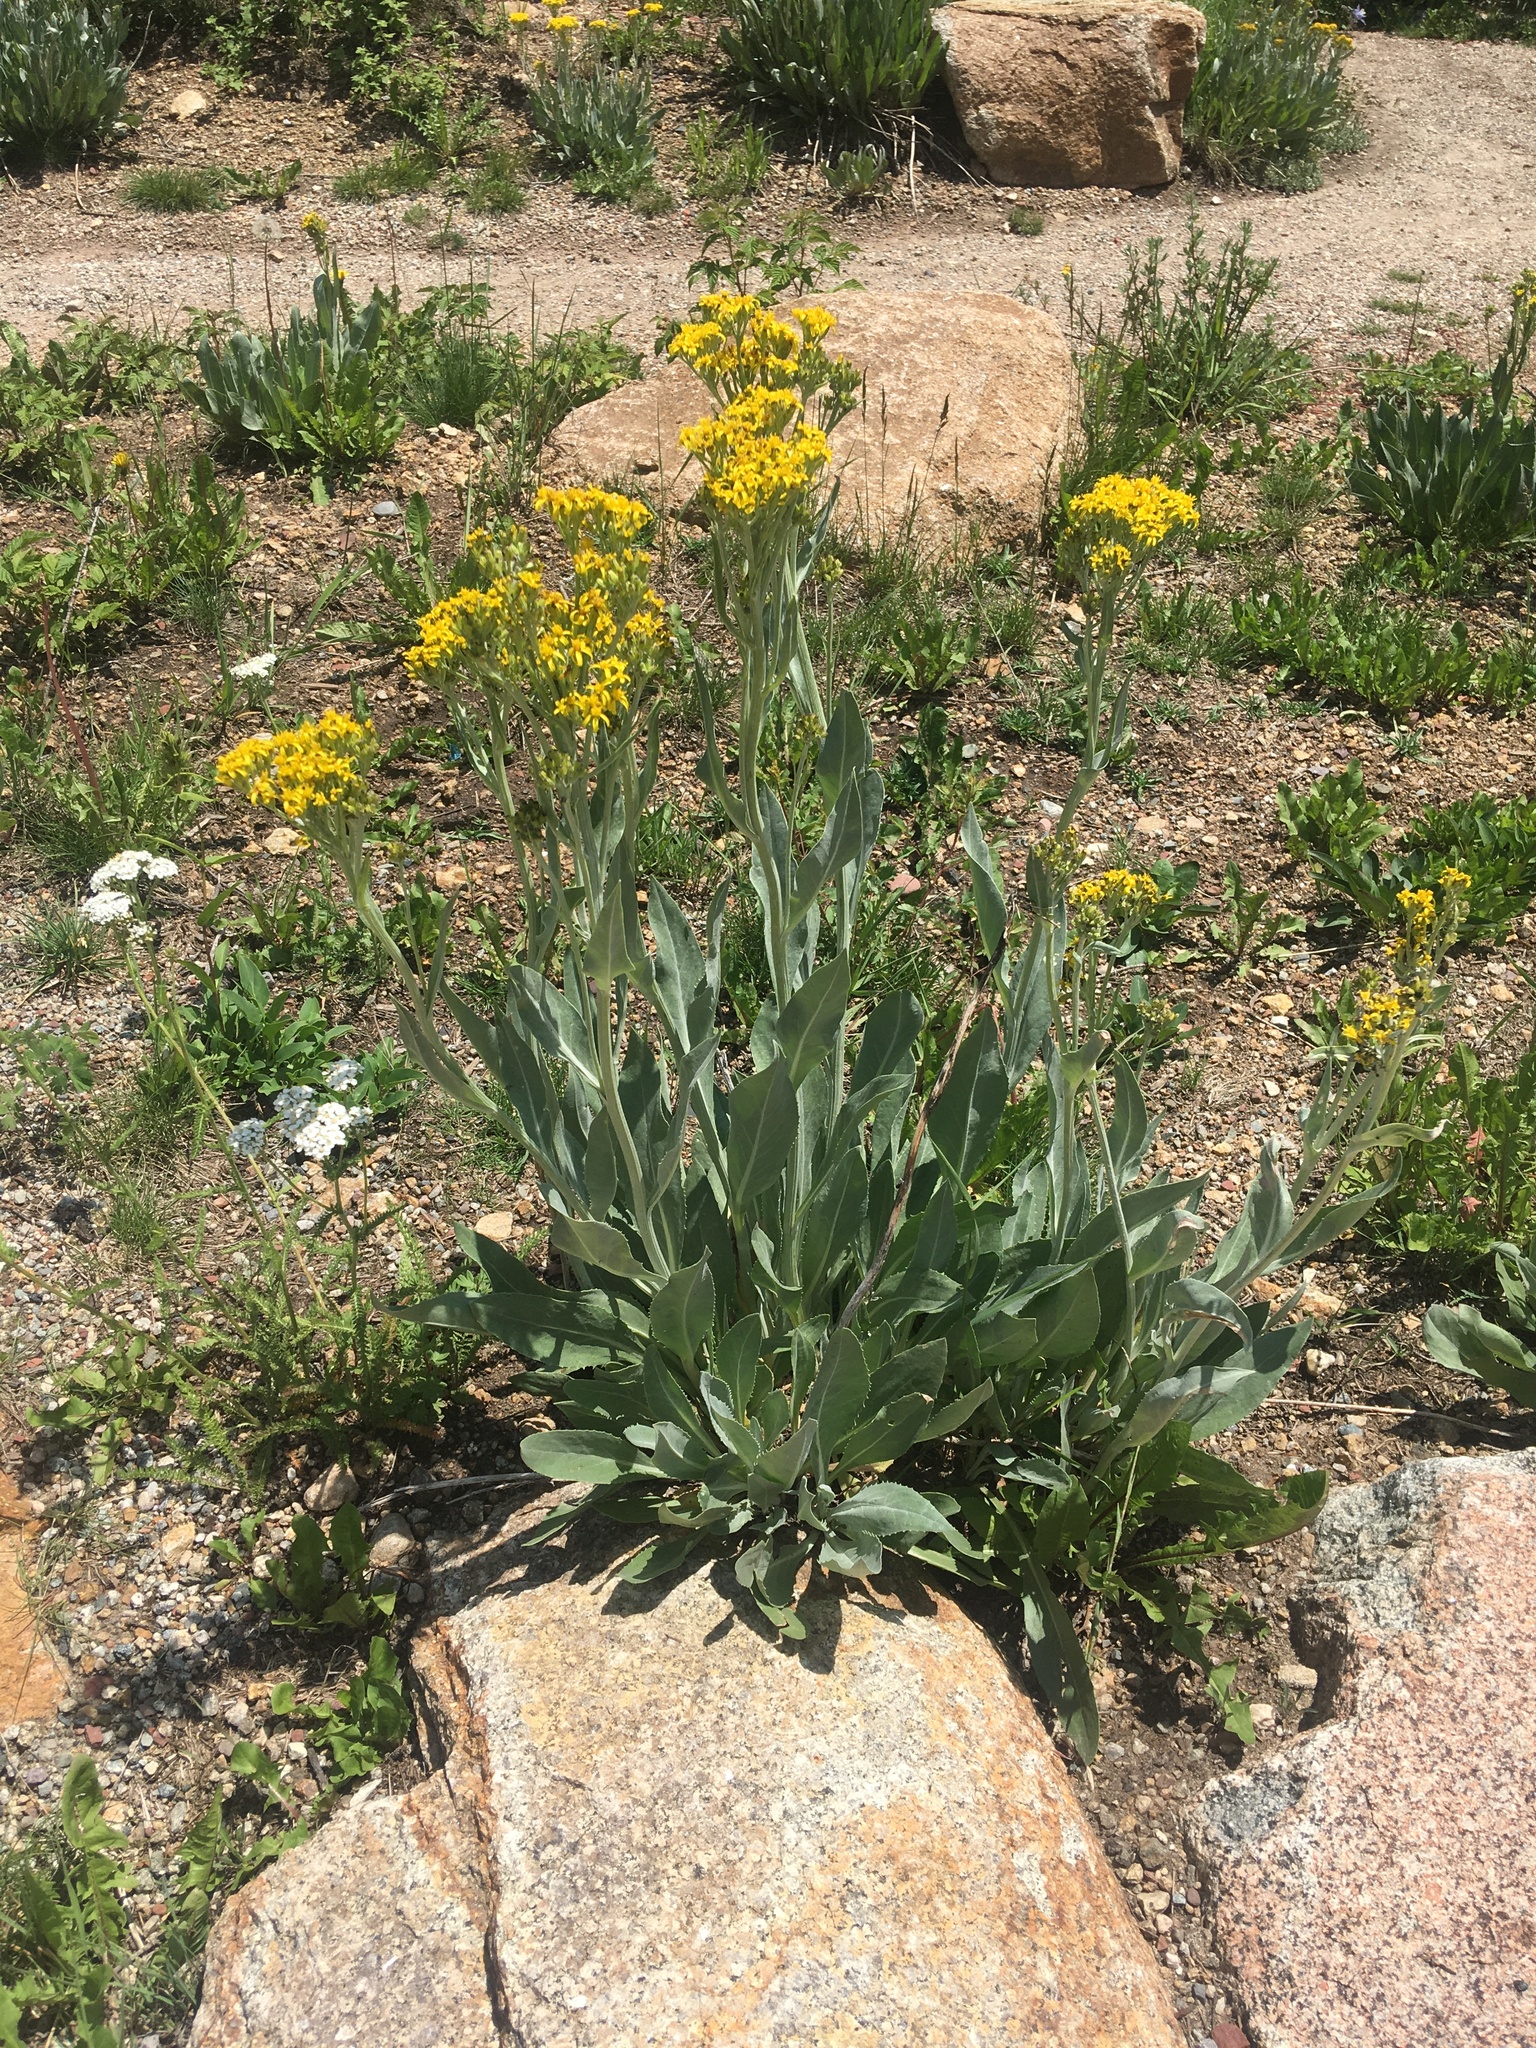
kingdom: Plantae
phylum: Tracheophyta
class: Magnoliopsida
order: Asterales
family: Asteraceae
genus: Senecio
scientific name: Senecio atratus
